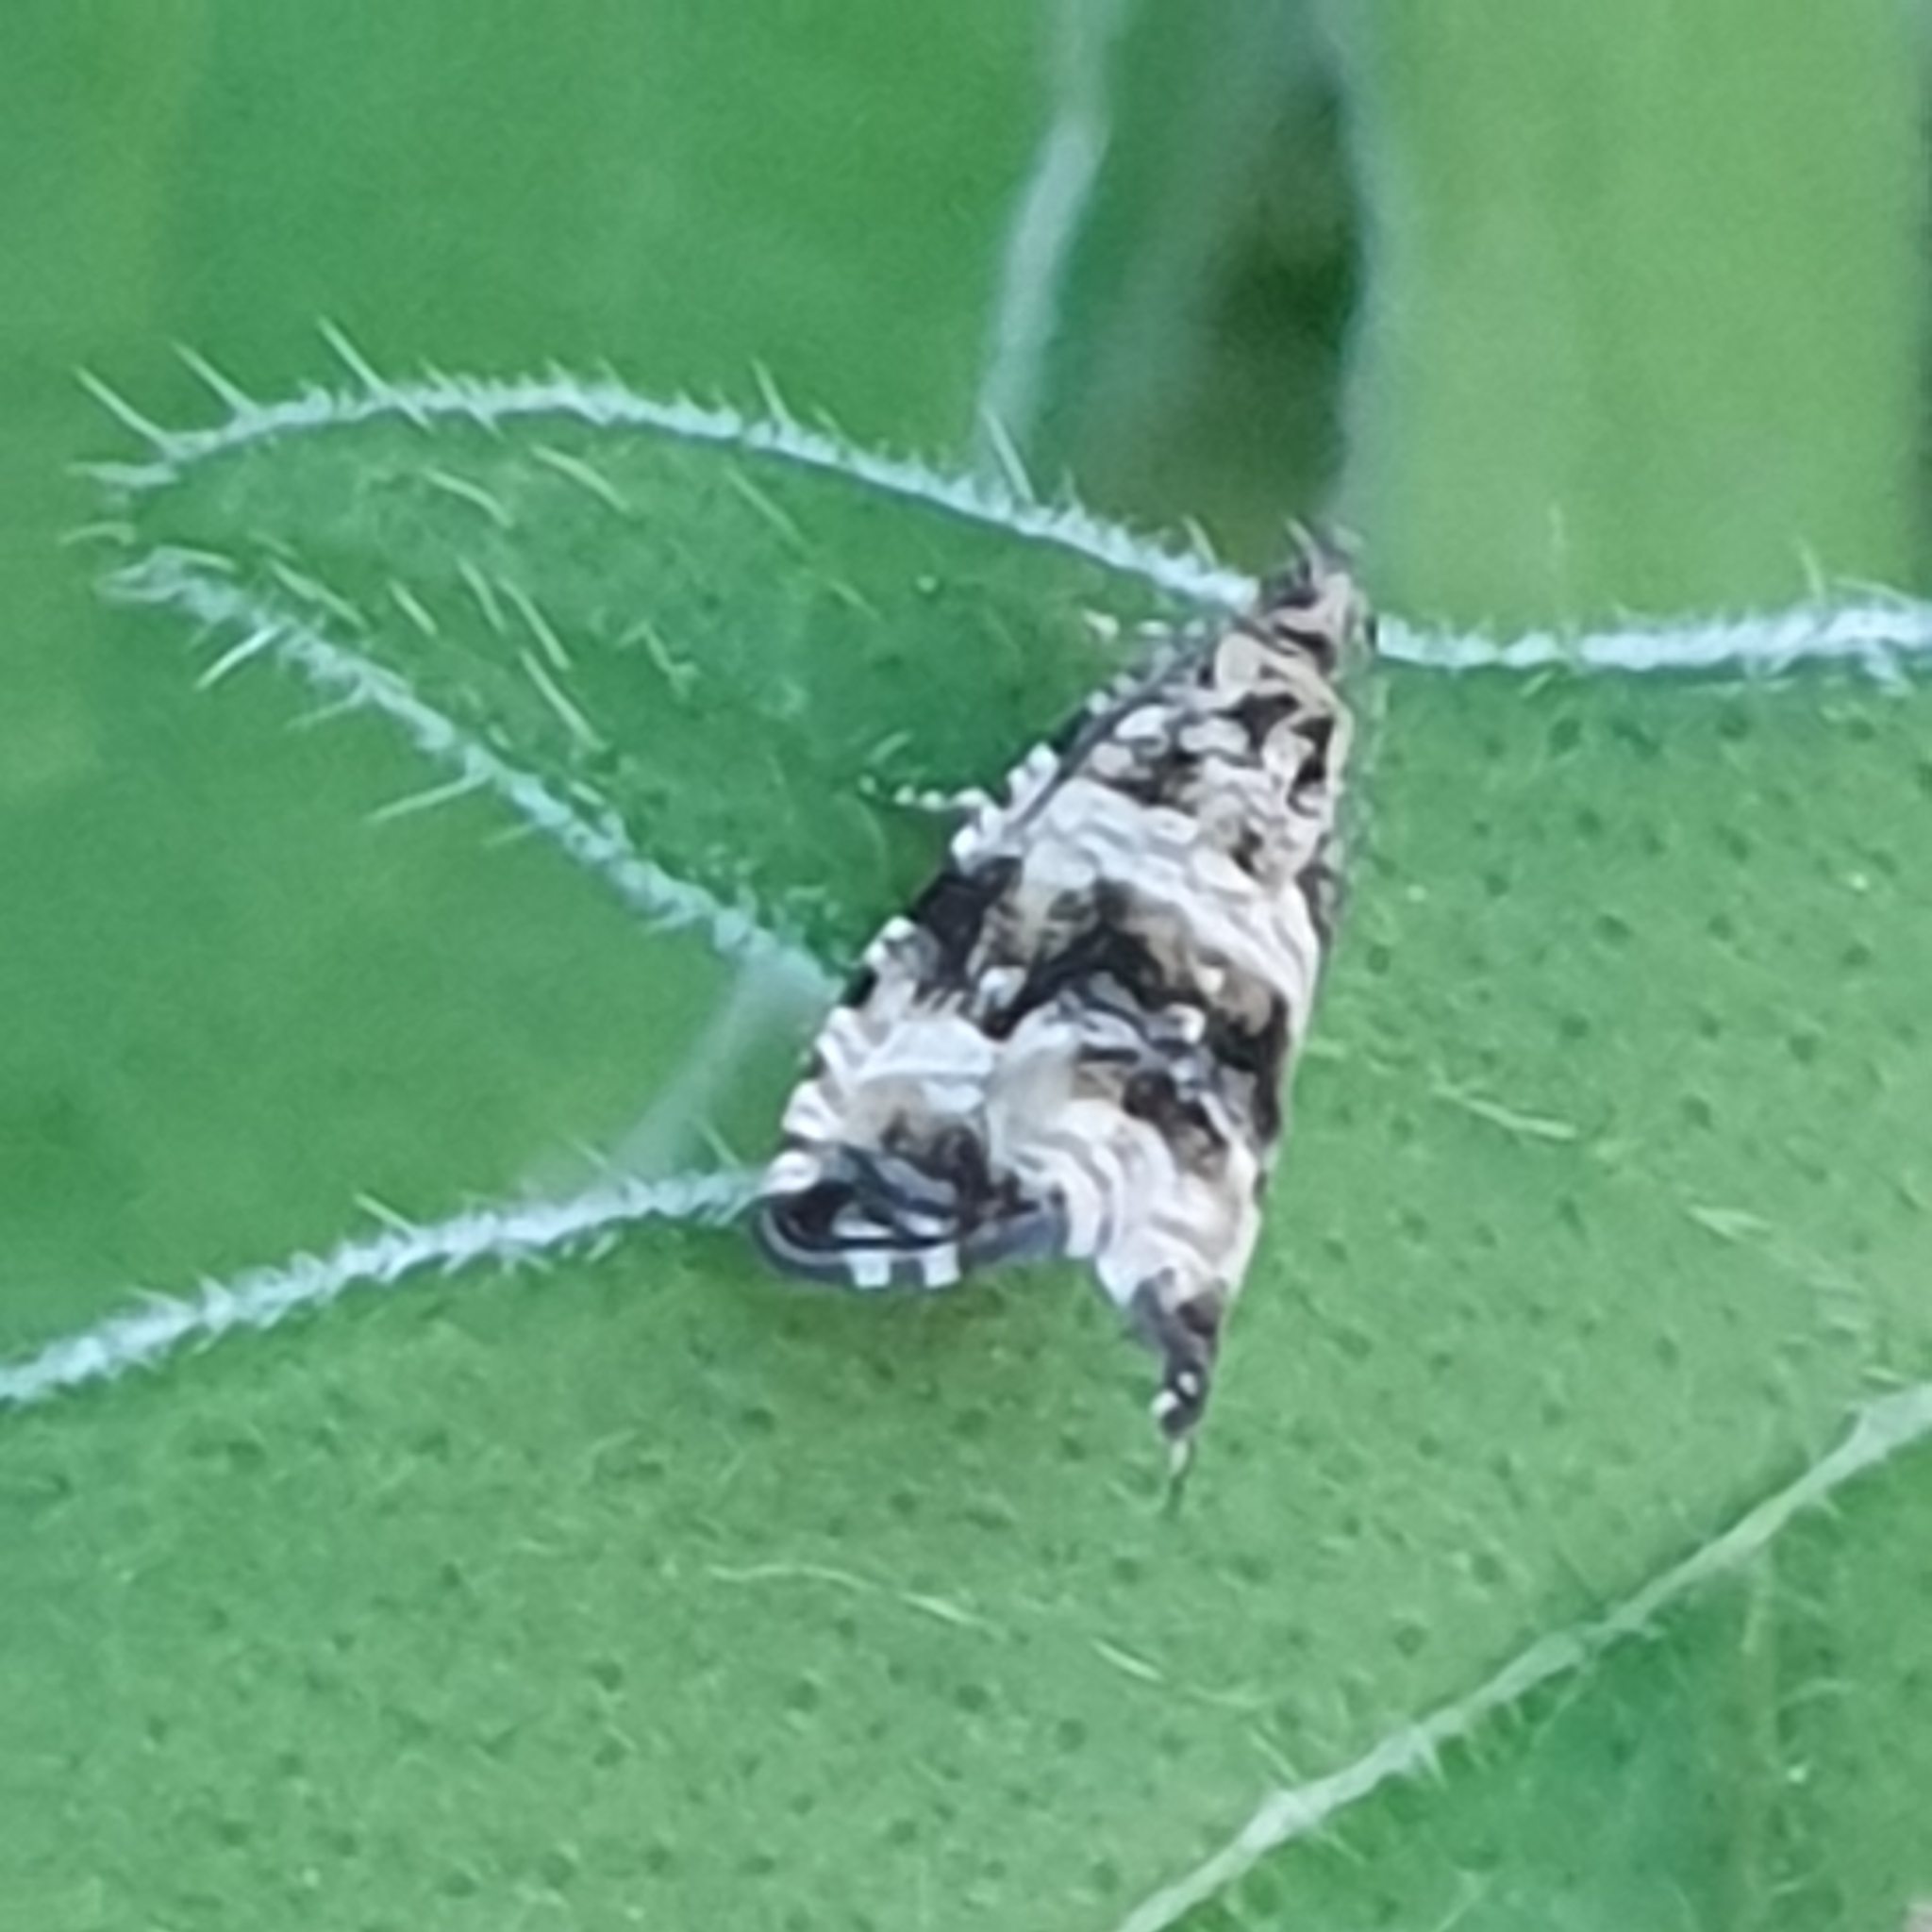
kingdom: Animalia
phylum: Arthropoda
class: Insecta
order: Lepidoptera
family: Tortricidae
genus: Syricoris
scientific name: Syricoris lacunana
